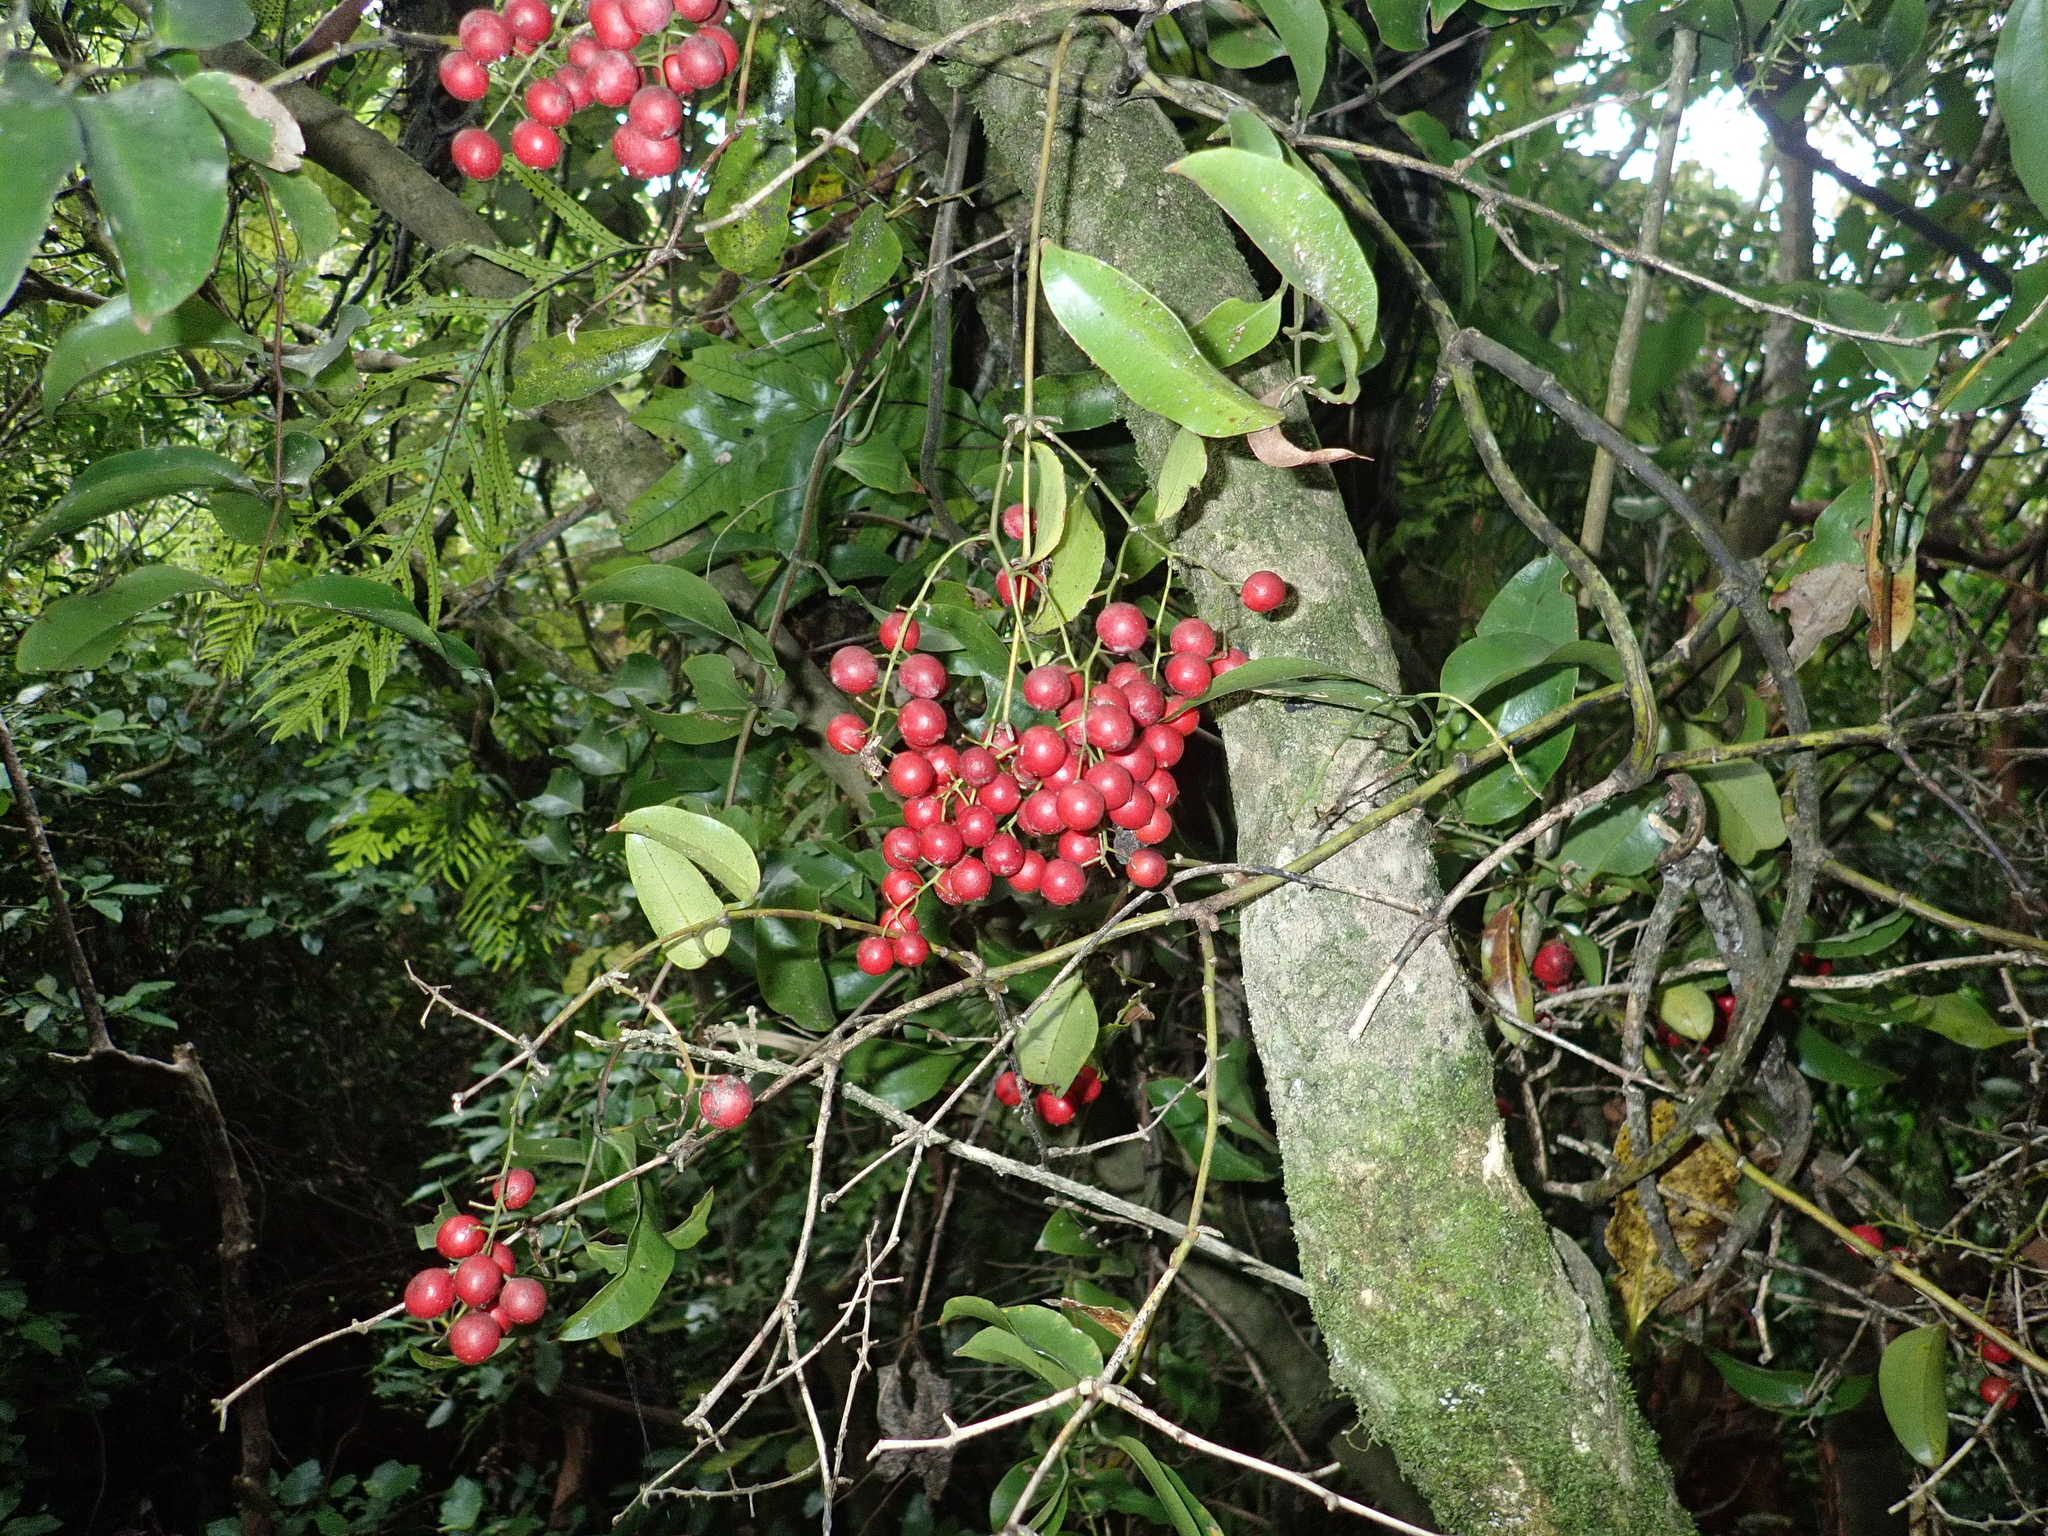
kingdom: Plantae
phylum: Tracheophyta
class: Liliopsida
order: Liliales
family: Ripogonaceae
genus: Ripogonum
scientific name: Ripogonum scandens
